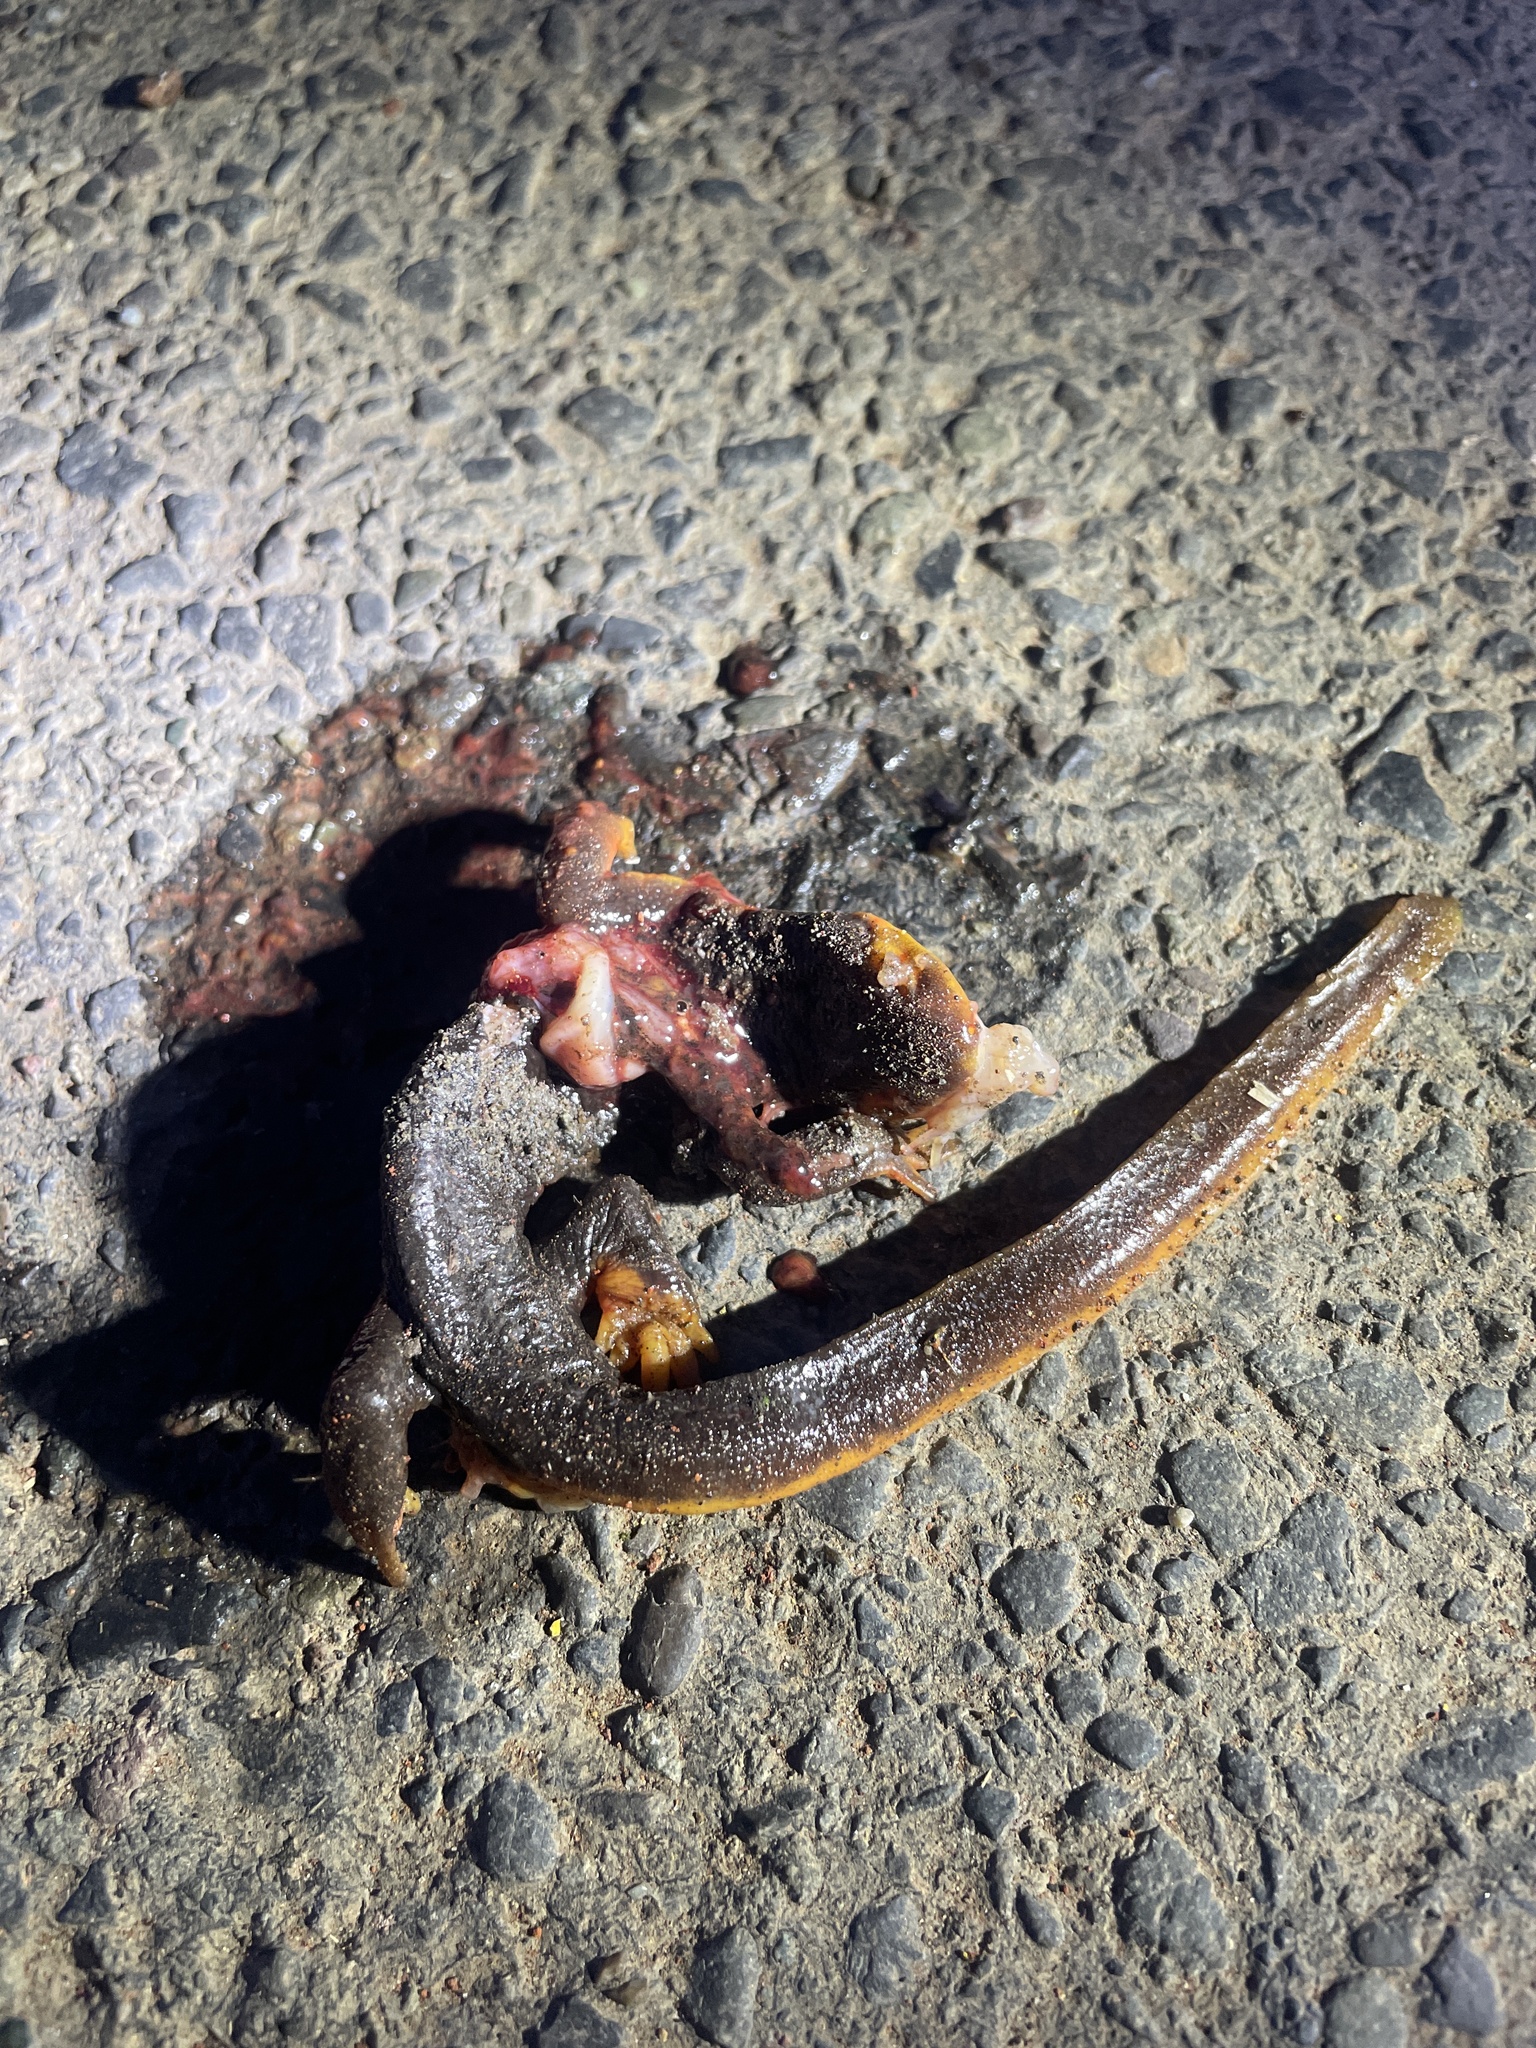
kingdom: Animalia
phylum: Chordata
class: Amphibia
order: Caudata
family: Salamandridae
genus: Taricha
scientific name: Taricha
